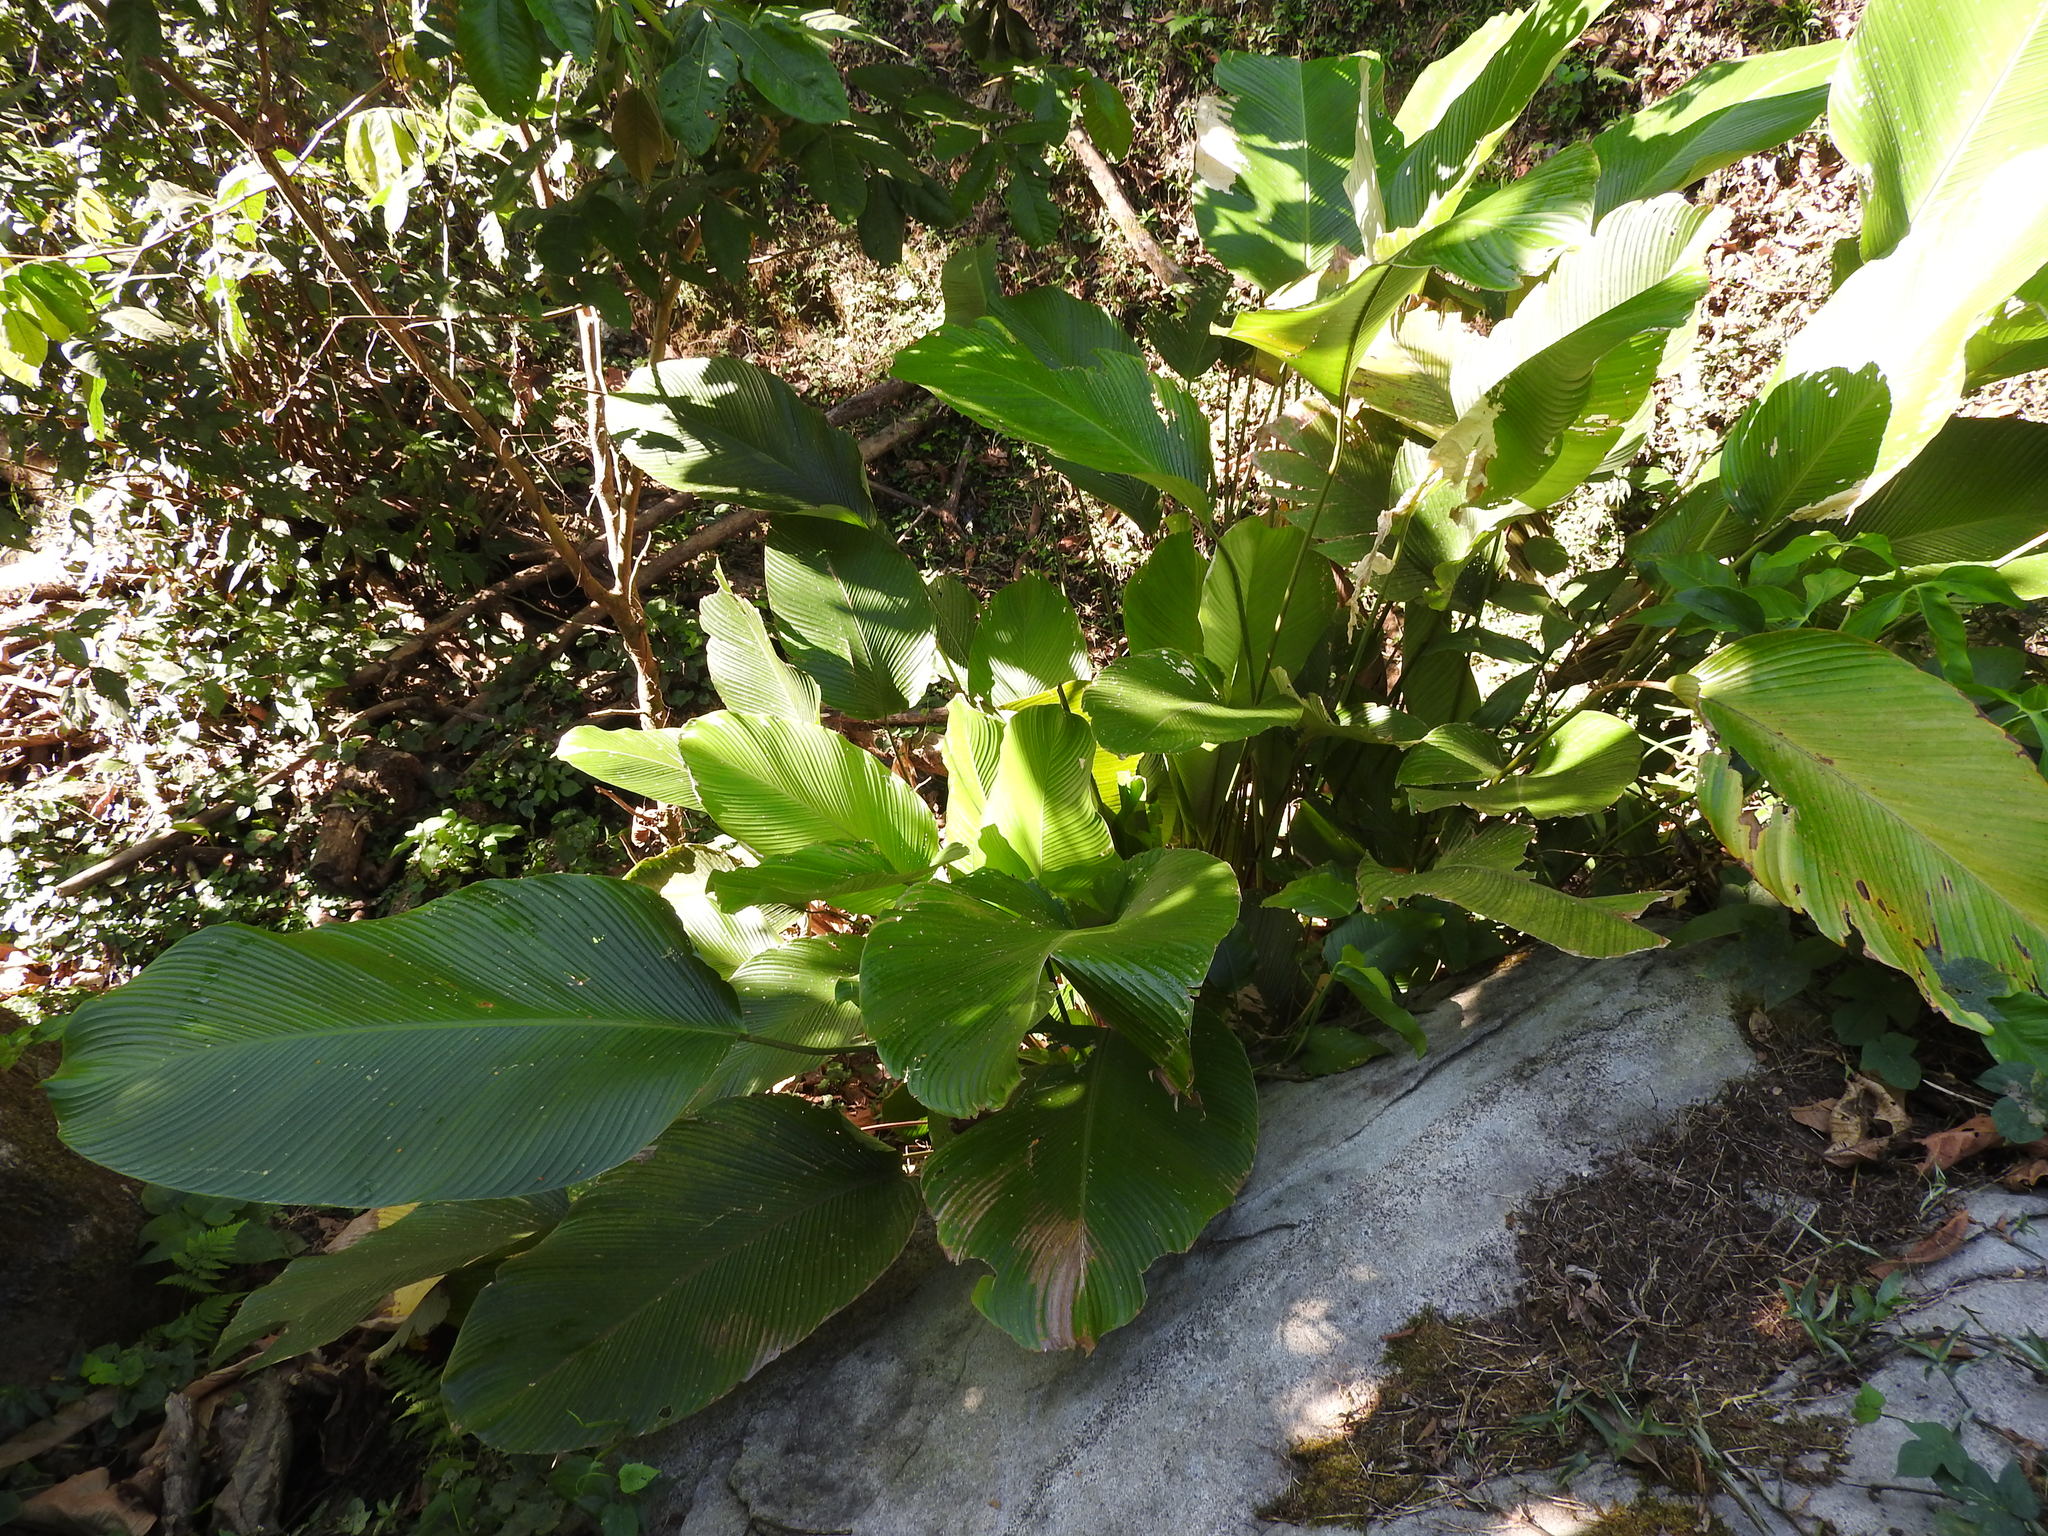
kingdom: Plantae
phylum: Tracheophyta
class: Liliopsida
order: Zingiberales
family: Marantaceae
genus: Calathea
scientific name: Calathea crotalifera
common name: Rattlesnake plant
